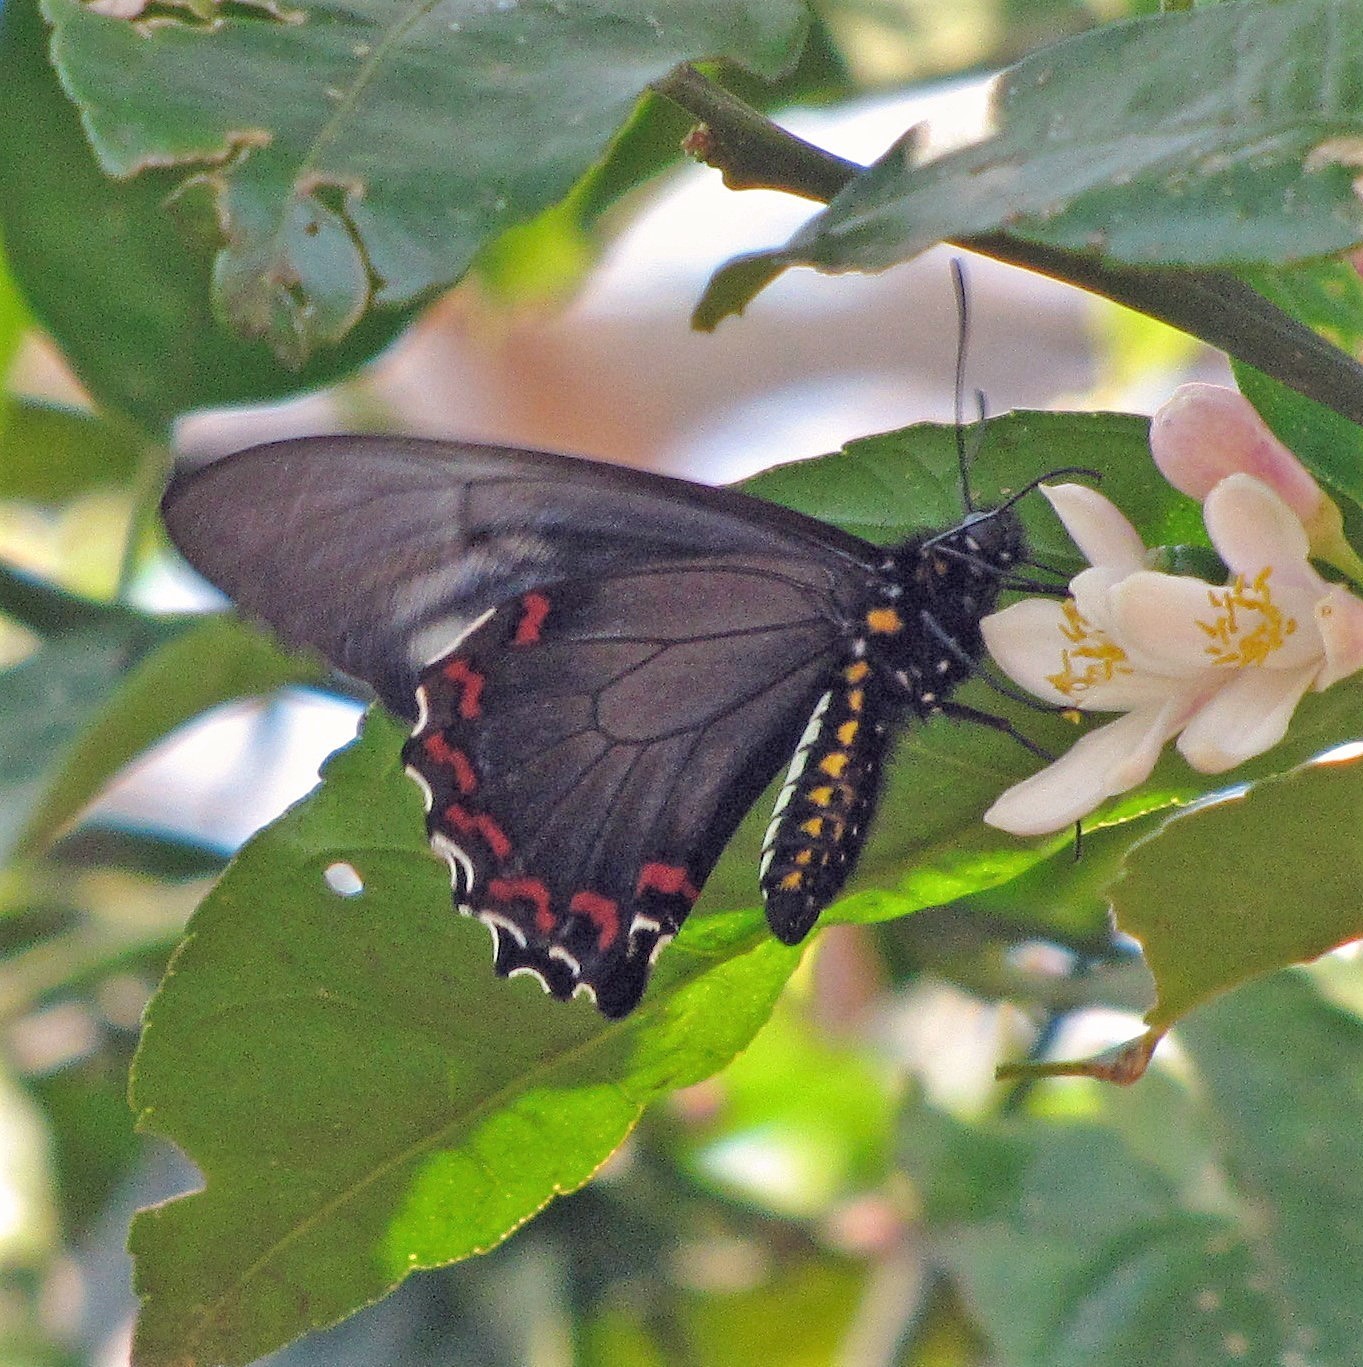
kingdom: Animalia
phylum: Arthropoda
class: Insecta
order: Lepidoptera
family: Papilionidae
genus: Battus
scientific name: Battus polystictus
